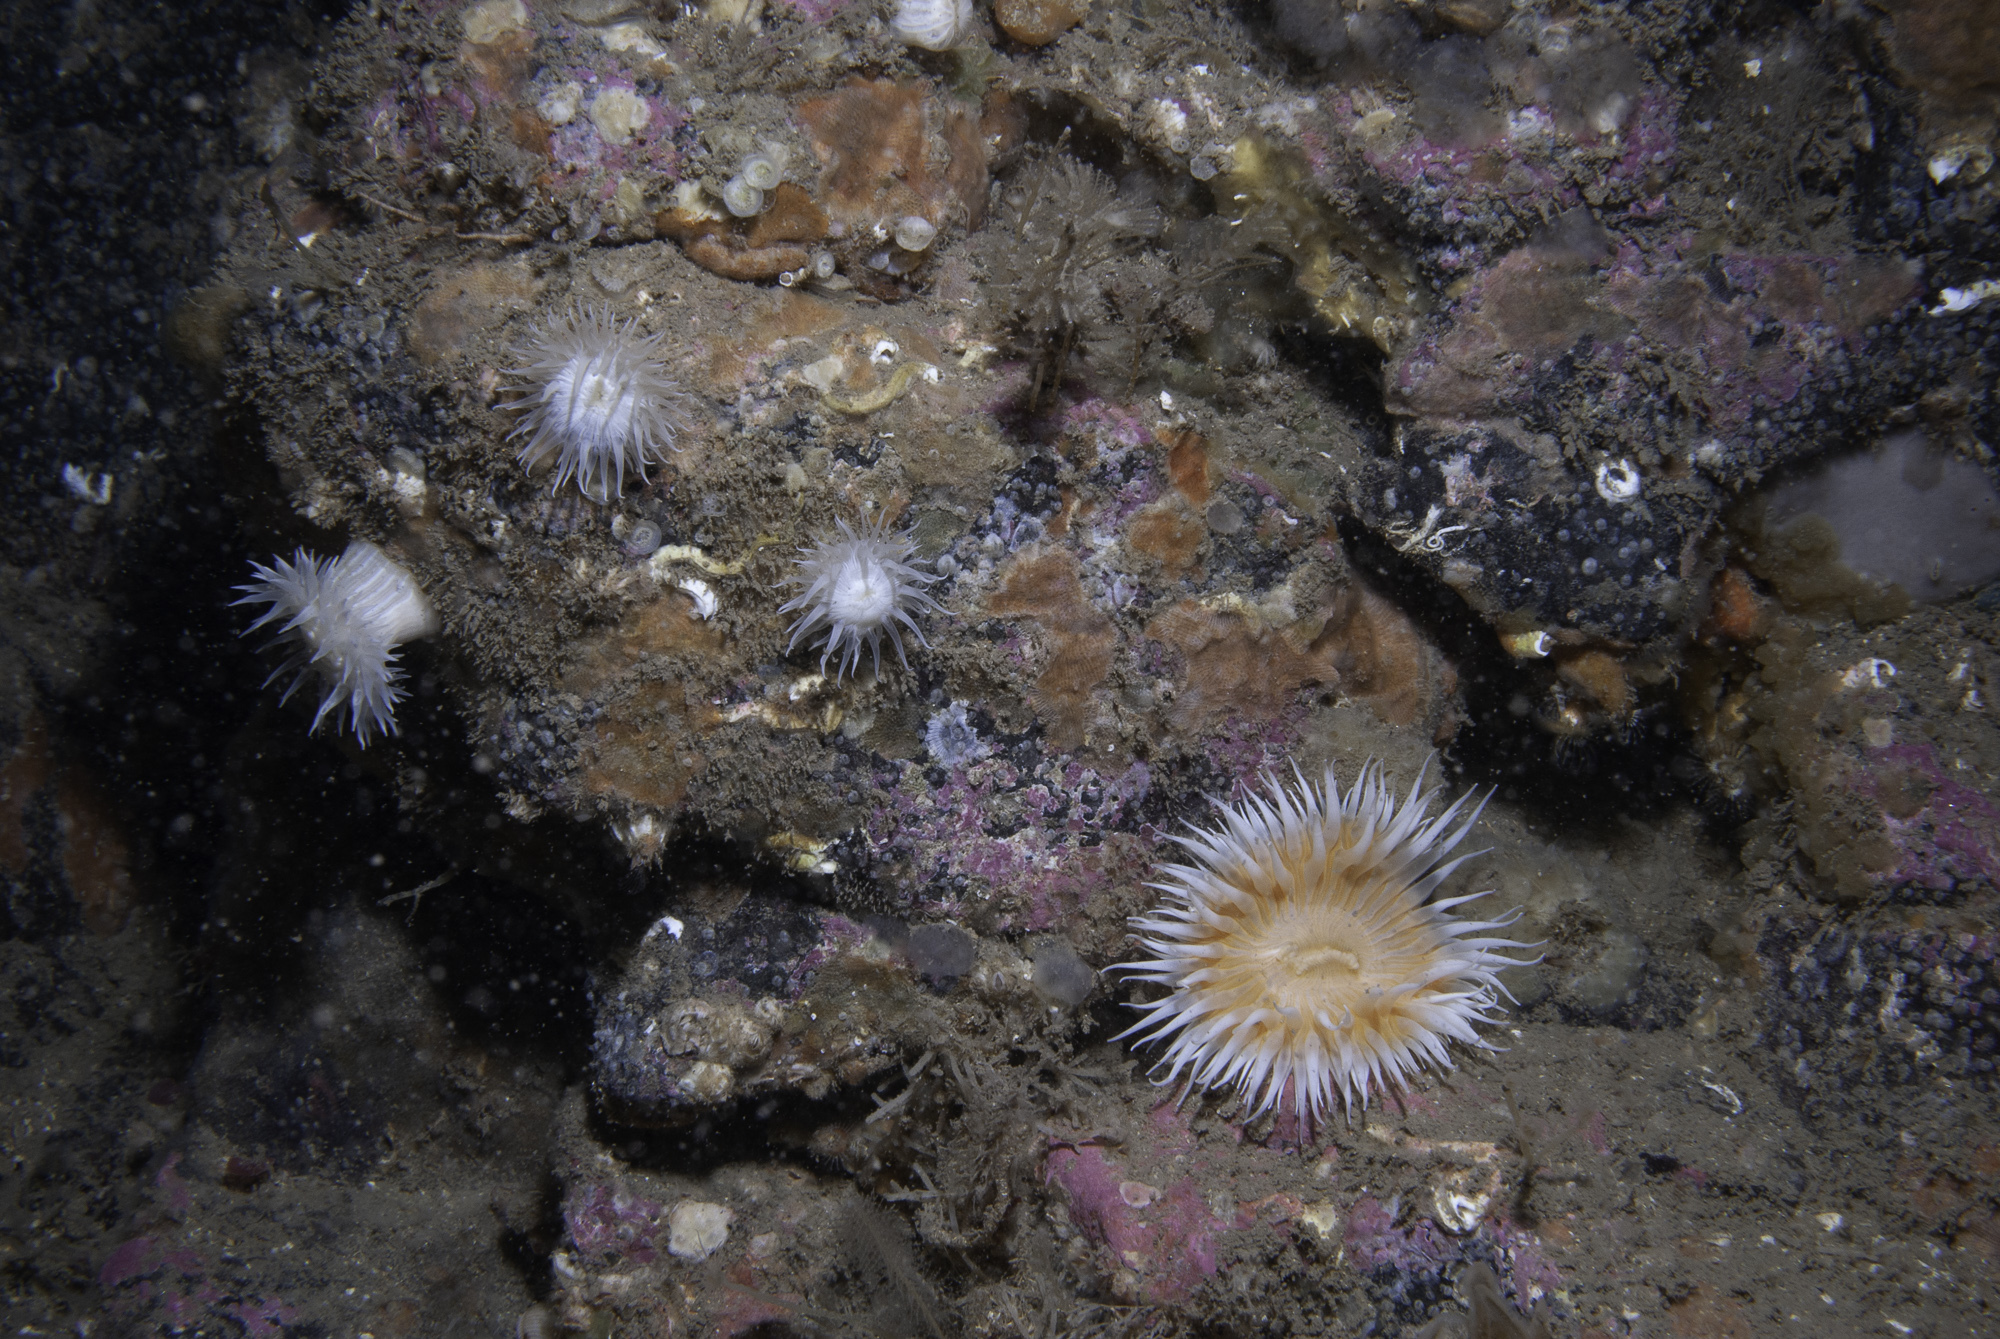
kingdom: Animalia
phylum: Cnidaria
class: Anthozoa
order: Actiniaria
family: Sagartiidae
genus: Cylista
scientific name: Cylista elegans
